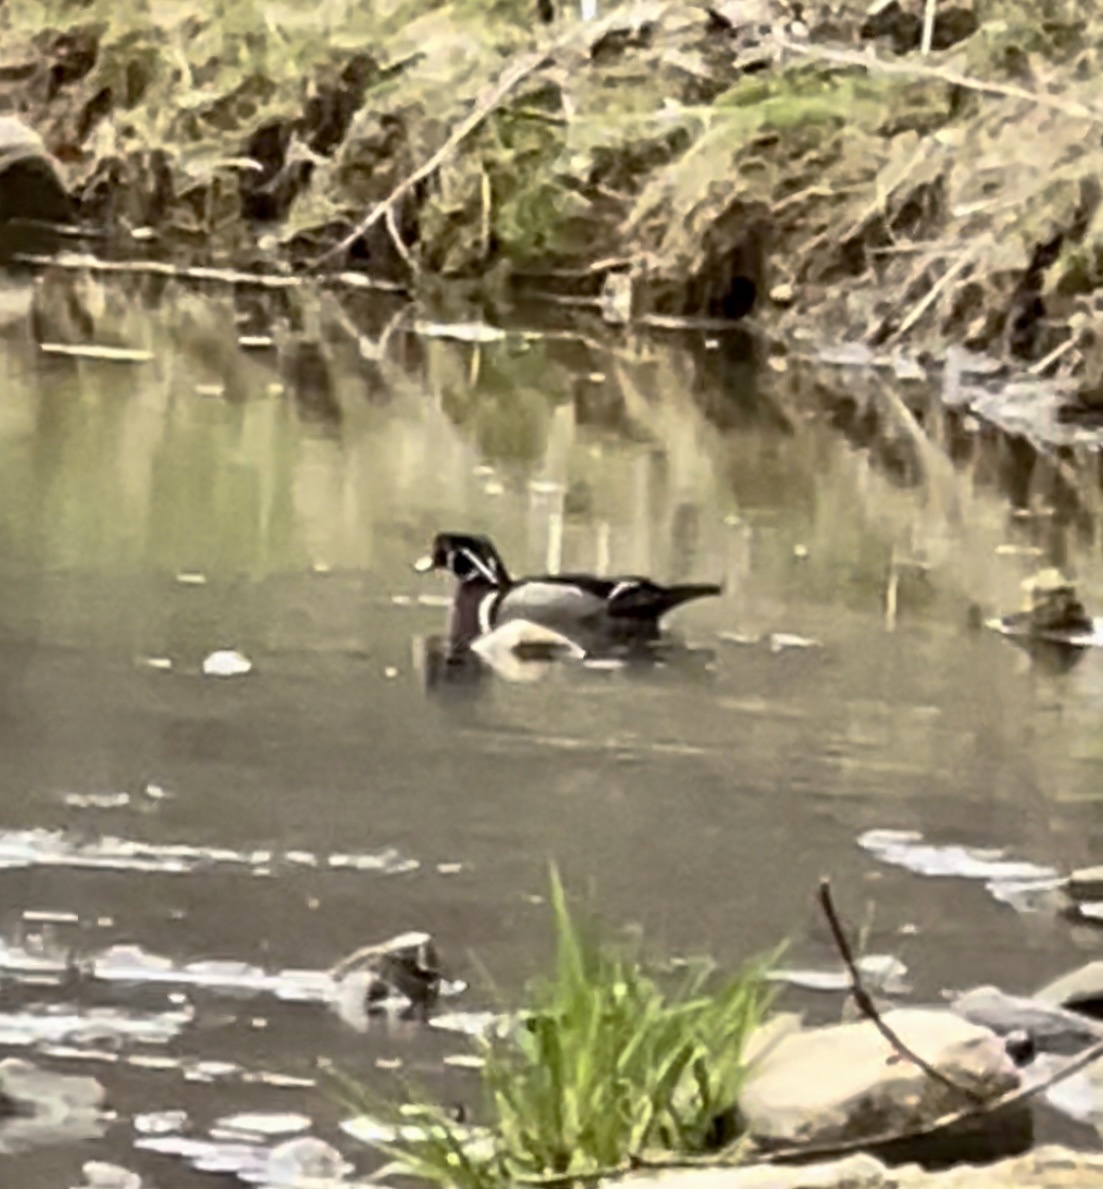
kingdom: Animalia
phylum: Chordata
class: Aves
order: Anseriformes
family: Anatidae
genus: Aix
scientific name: Aix sponsa
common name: Wood duck
